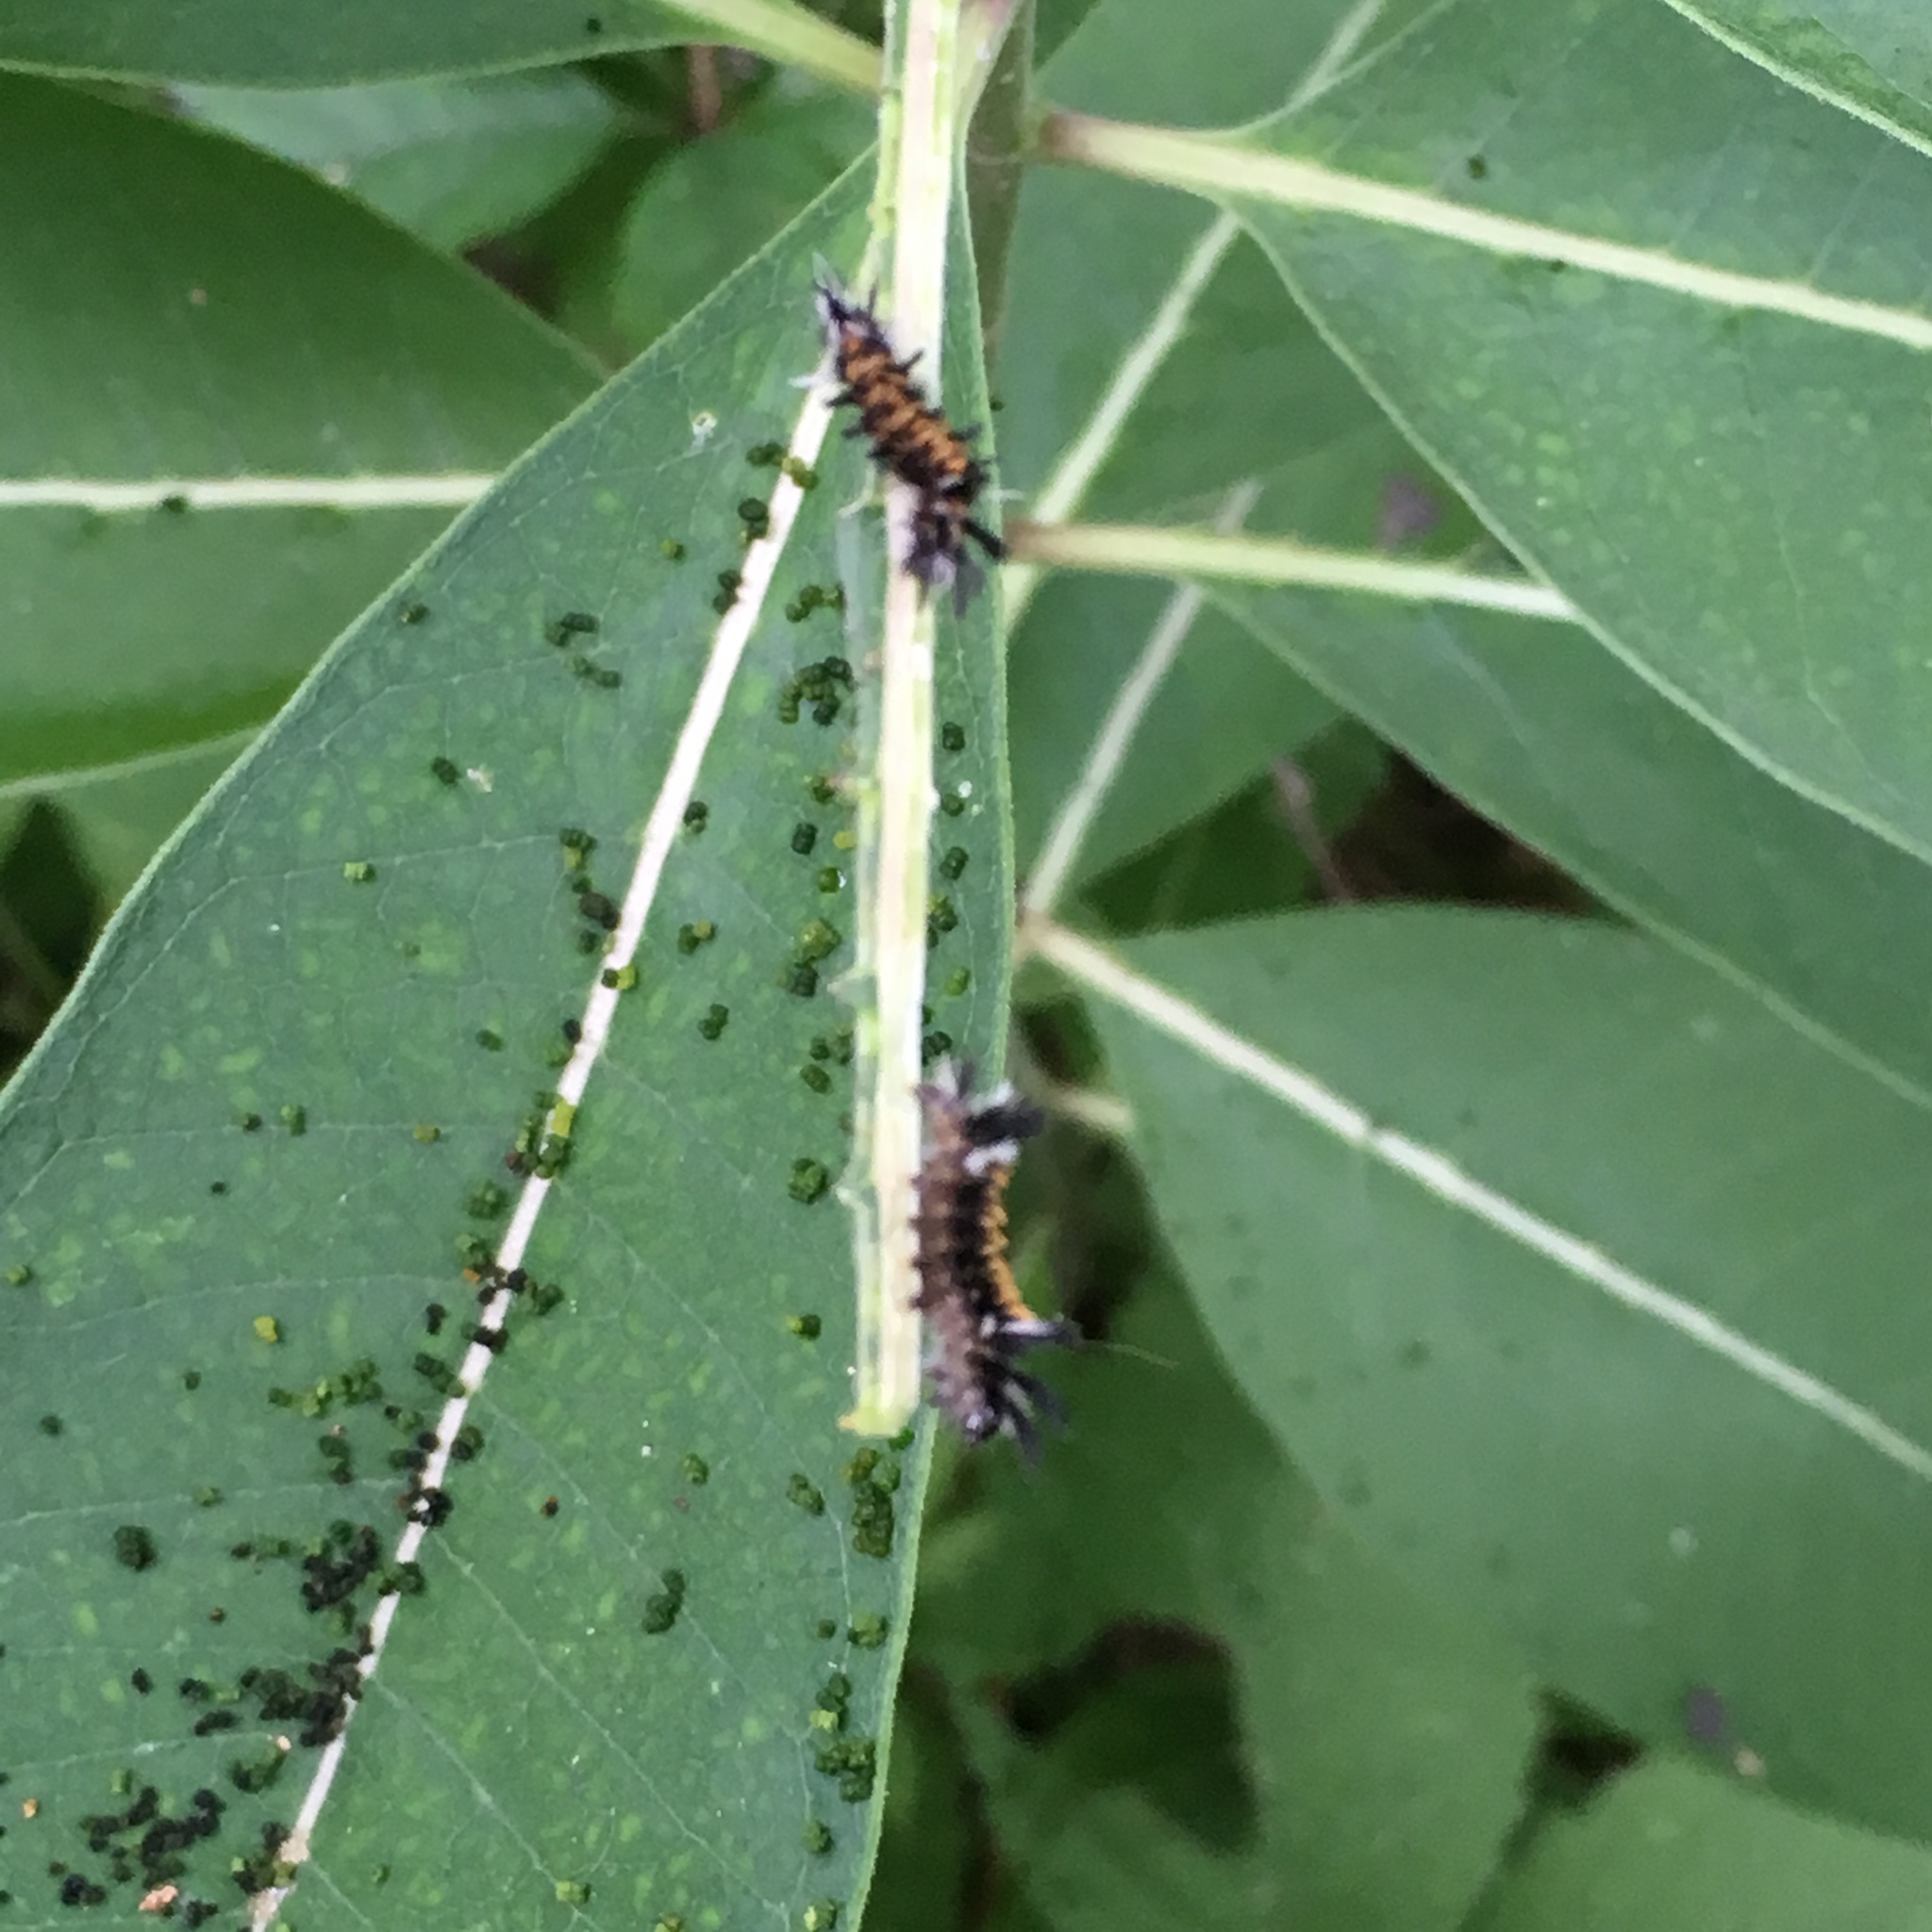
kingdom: Animalia
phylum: Arthropoda
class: Insecta
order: Lepidoptera
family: Erebidae
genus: Euchaetes
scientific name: Euchaetes egle
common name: Milkweed tussock moth
